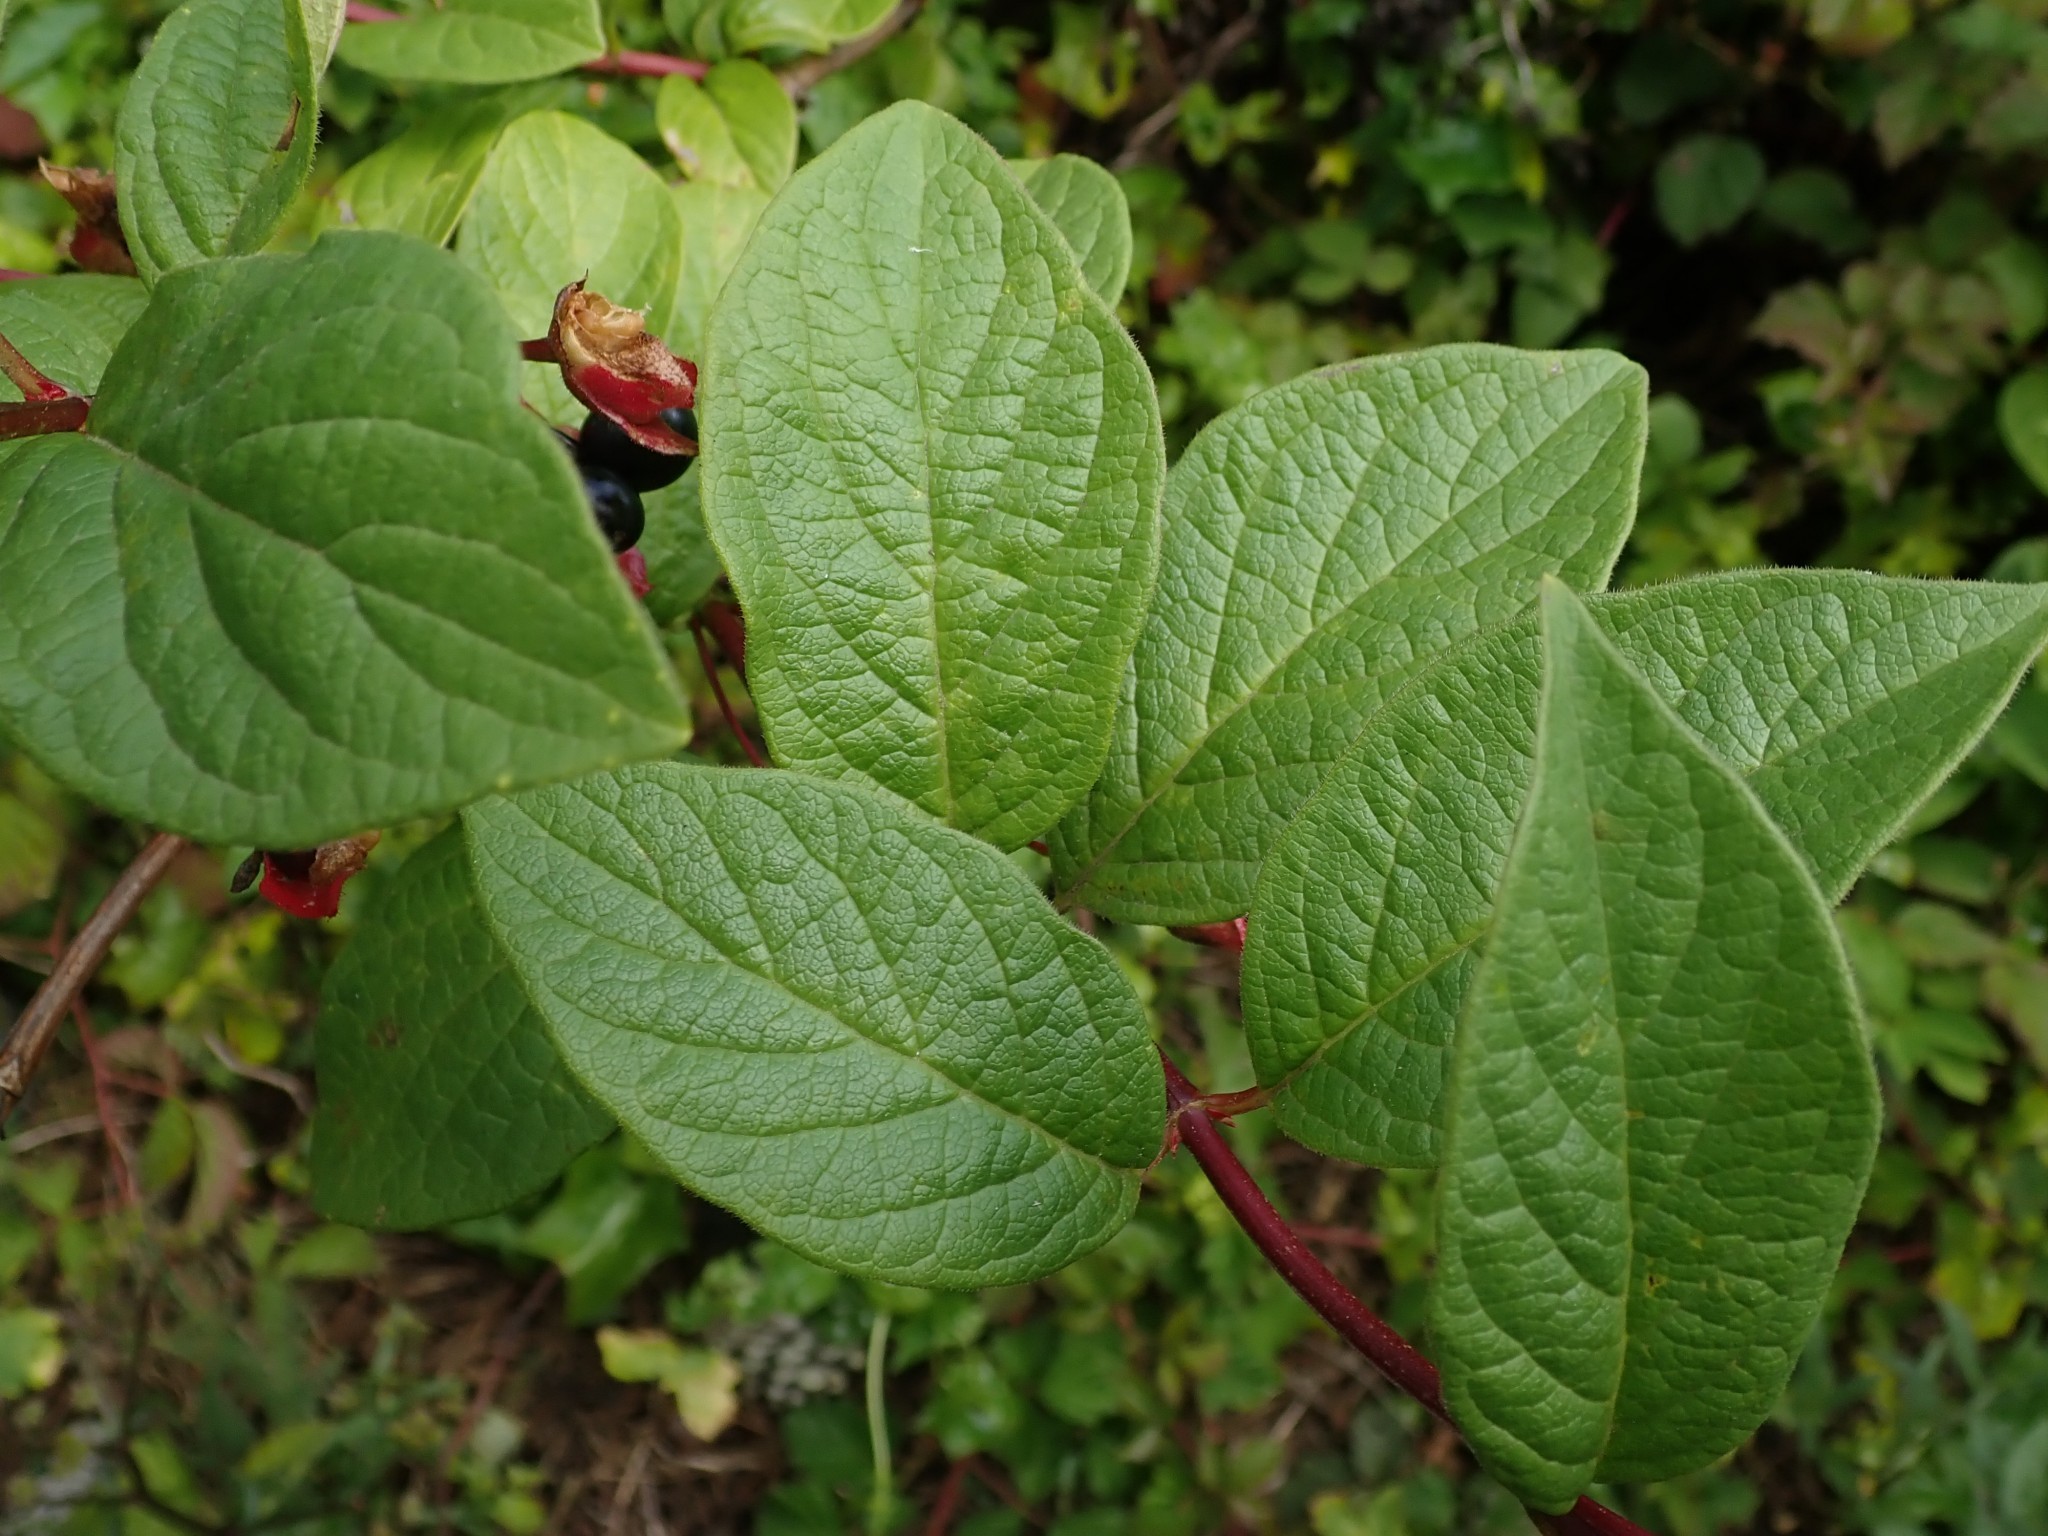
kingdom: Plantae
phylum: Tracheophyta
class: Magnoliopsida
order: Dipsacales
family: Caprifoliaceae
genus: Lonicera
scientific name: Lonicera involucrata
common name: Californian honeysuckle
